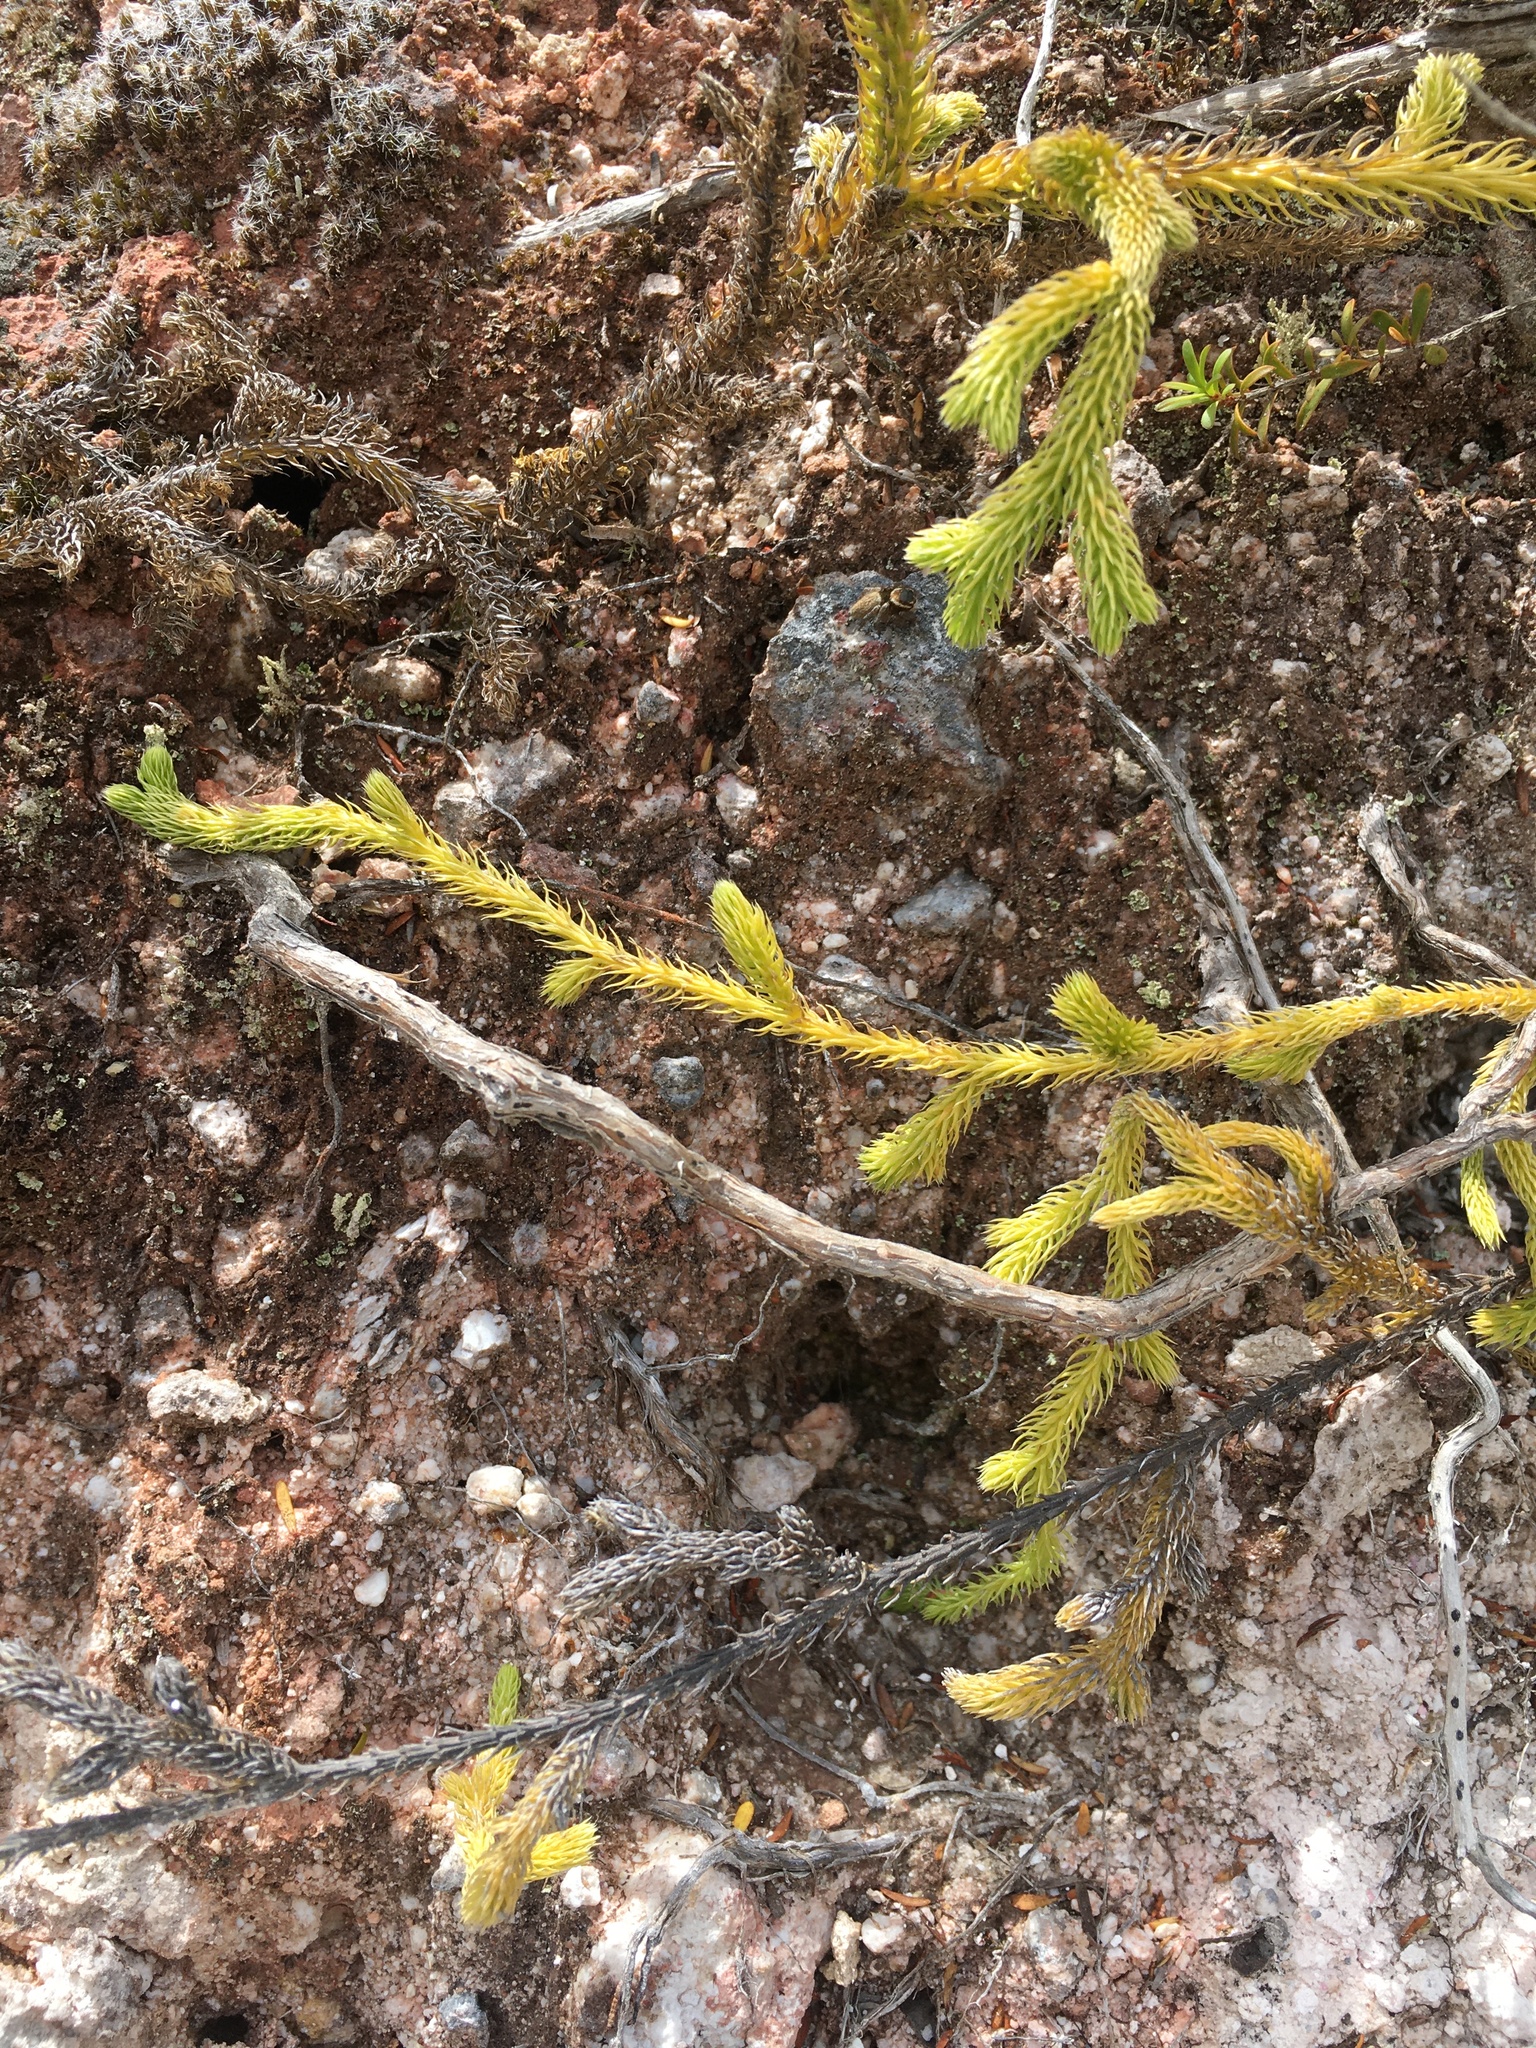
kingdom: Plantae
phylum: Tracheophyta
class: Lycopodiopsida
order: Lycopodiales
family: Lycopodiaceae
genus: Palhinhaea
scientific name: Palhinhaea cernua
